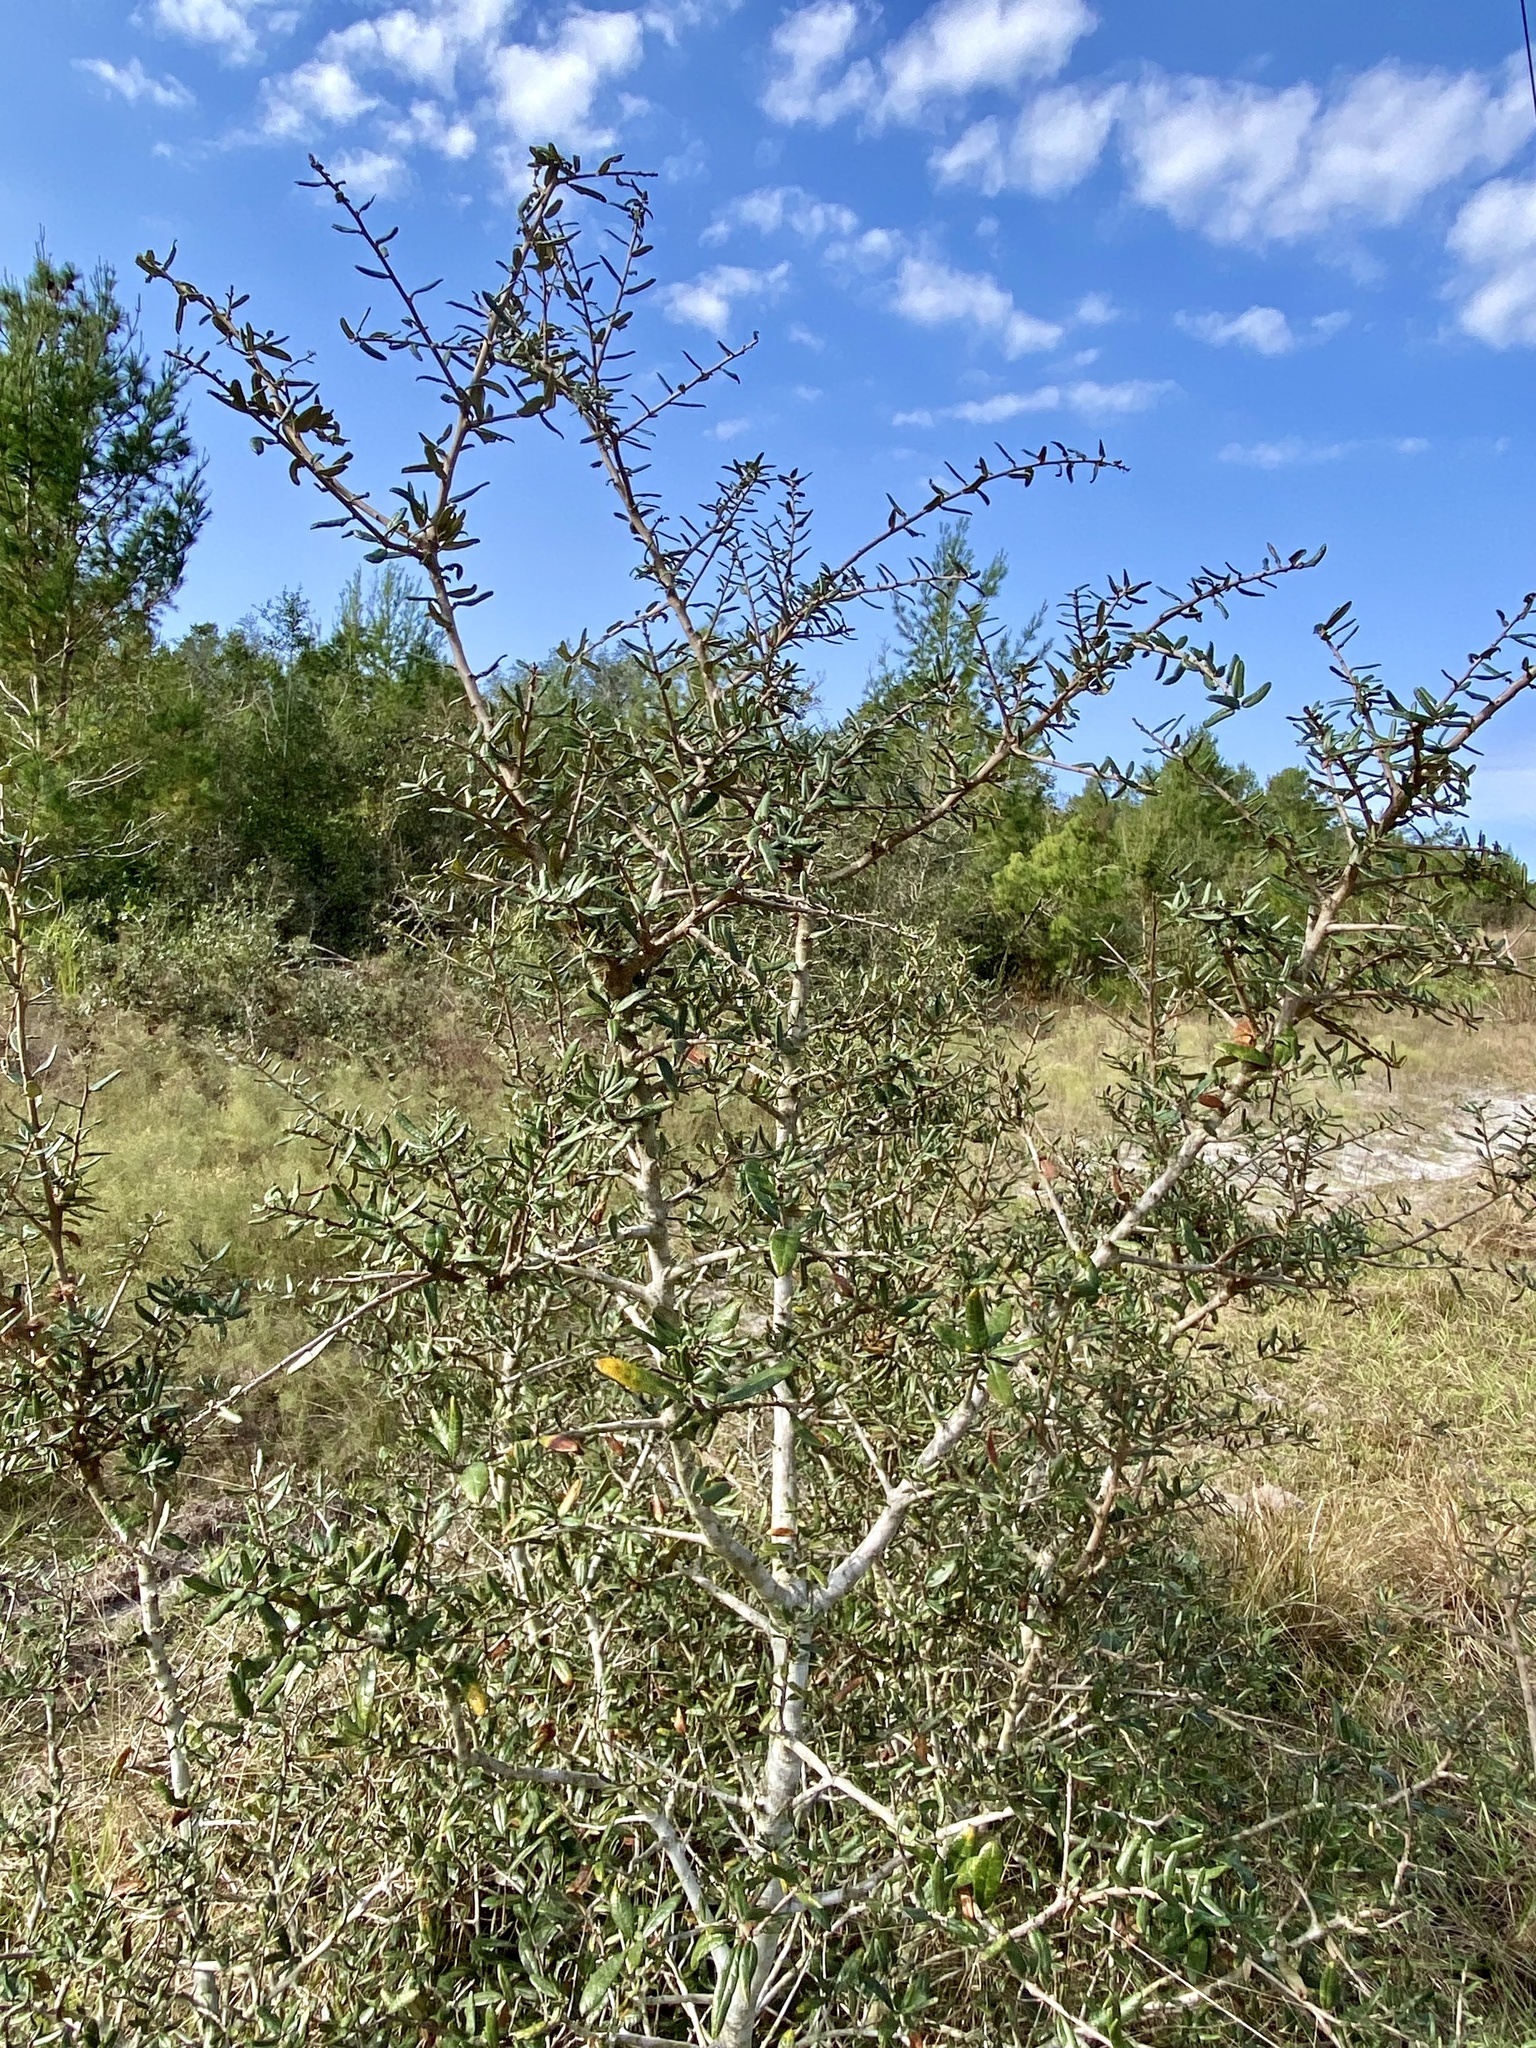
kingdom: Plantae
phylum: Tracheophyta
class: Magnoliopsida
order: Fagales
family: Fagaceae
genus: Quercus
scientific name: Quercus geminata
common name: Sand live oak
